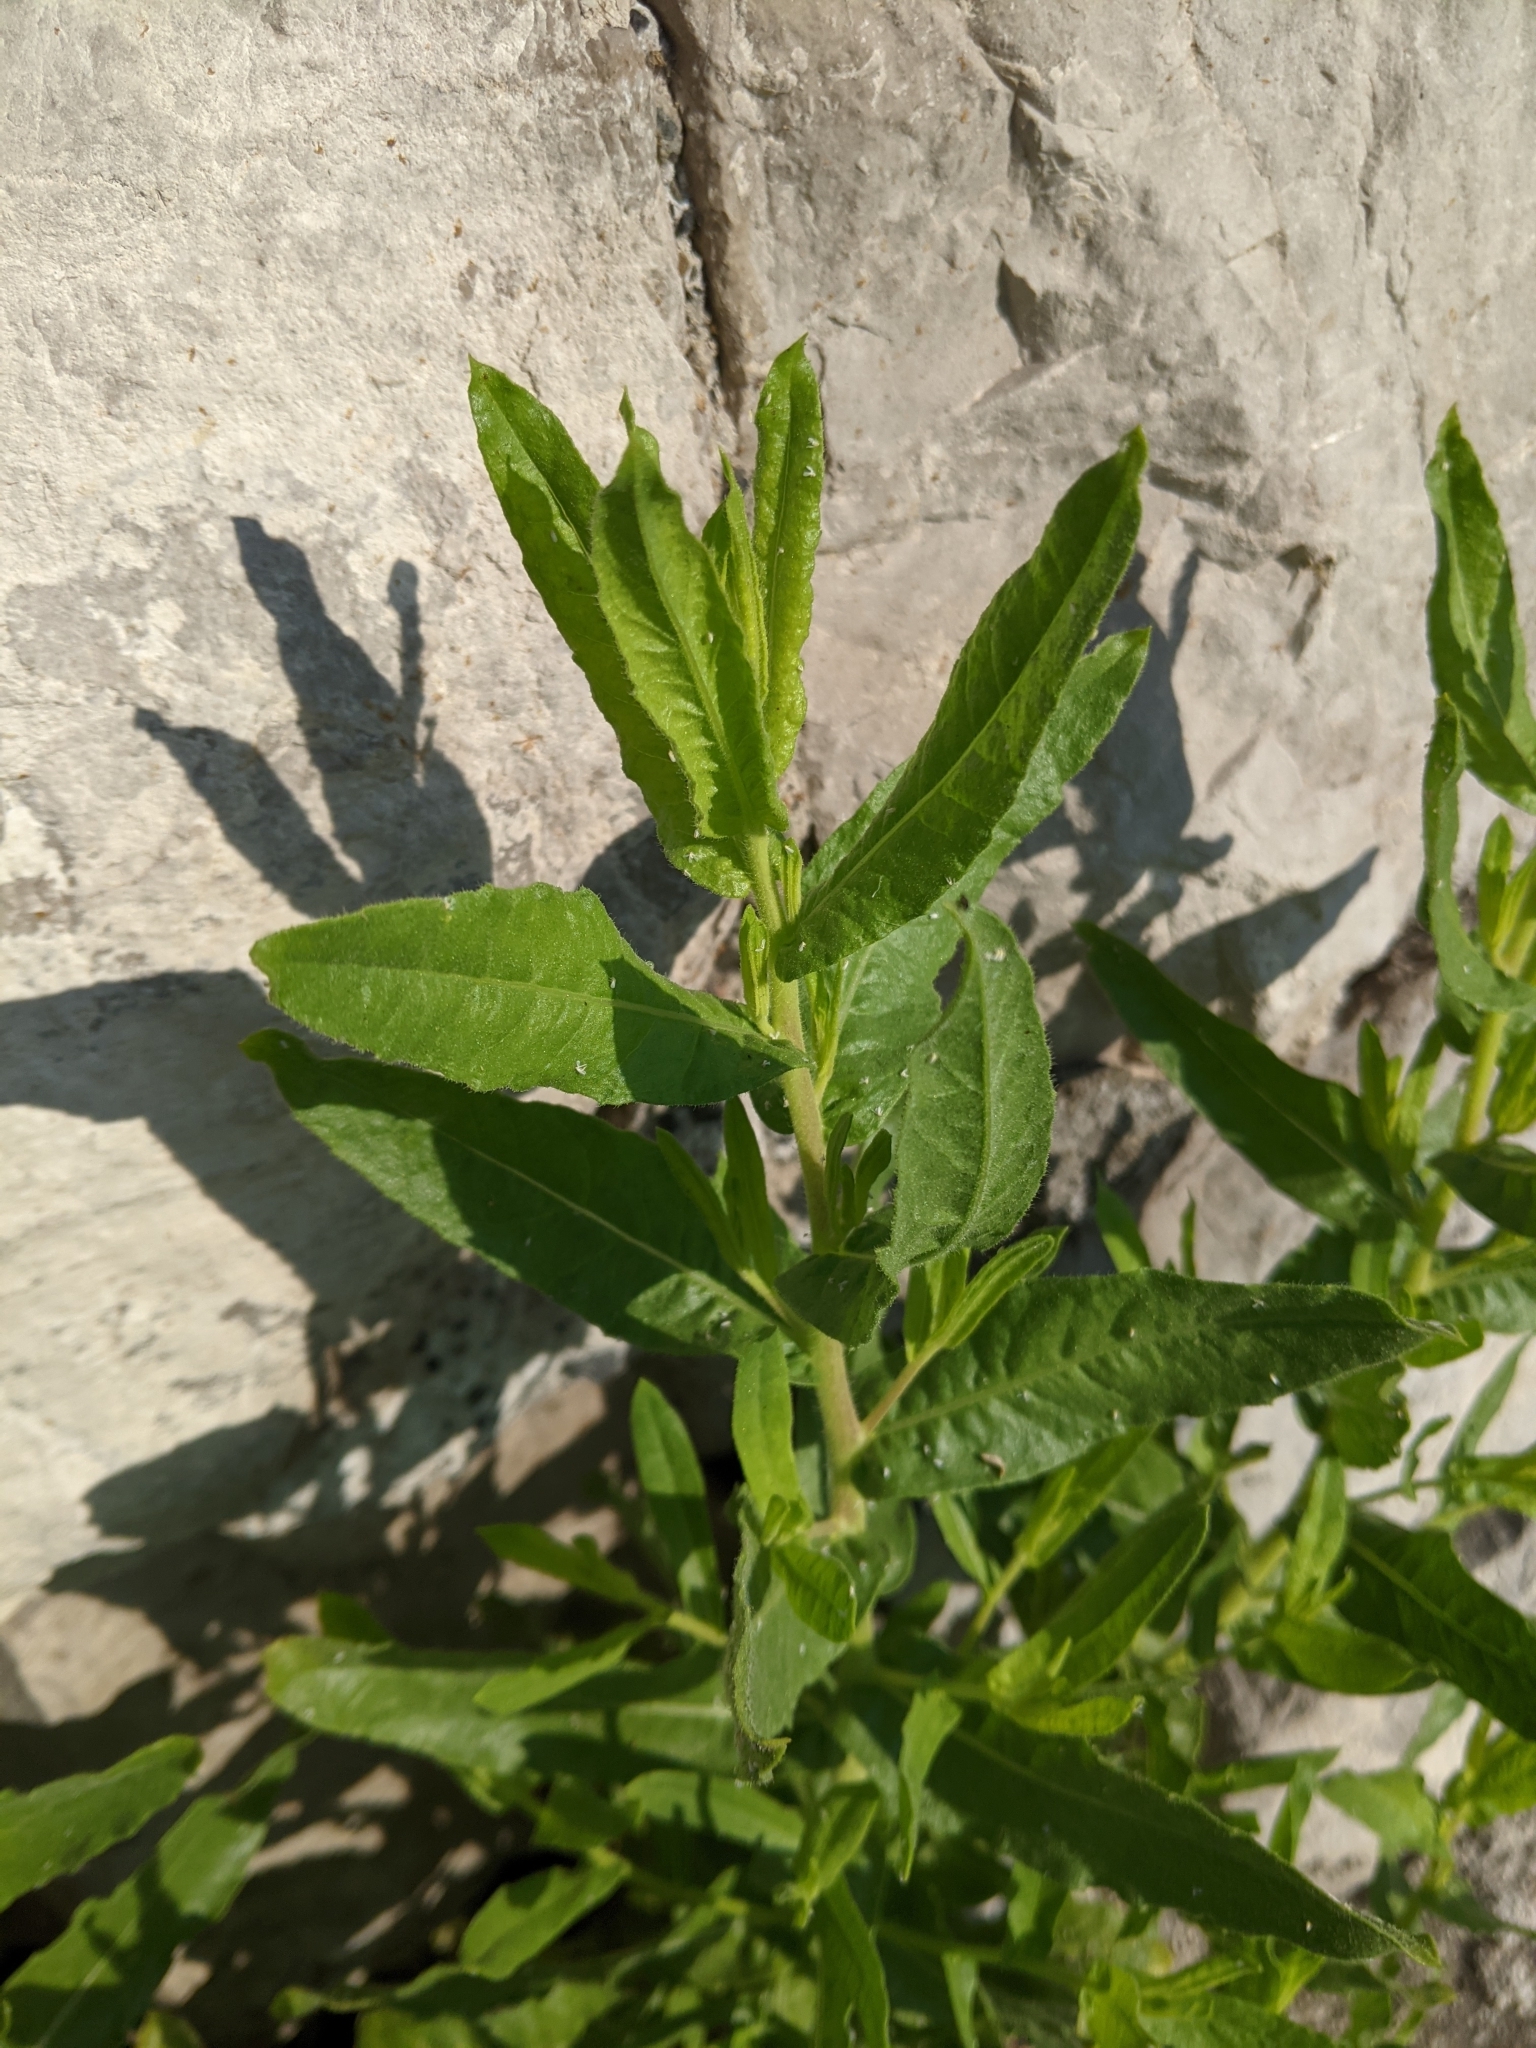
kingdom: Plantae
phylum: Tracheophyta
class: Magnoliopsida
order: Asterales
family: Asteraceae
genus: Dittrichia
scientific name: Dittrichia viscosa
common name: Woody fleabane
